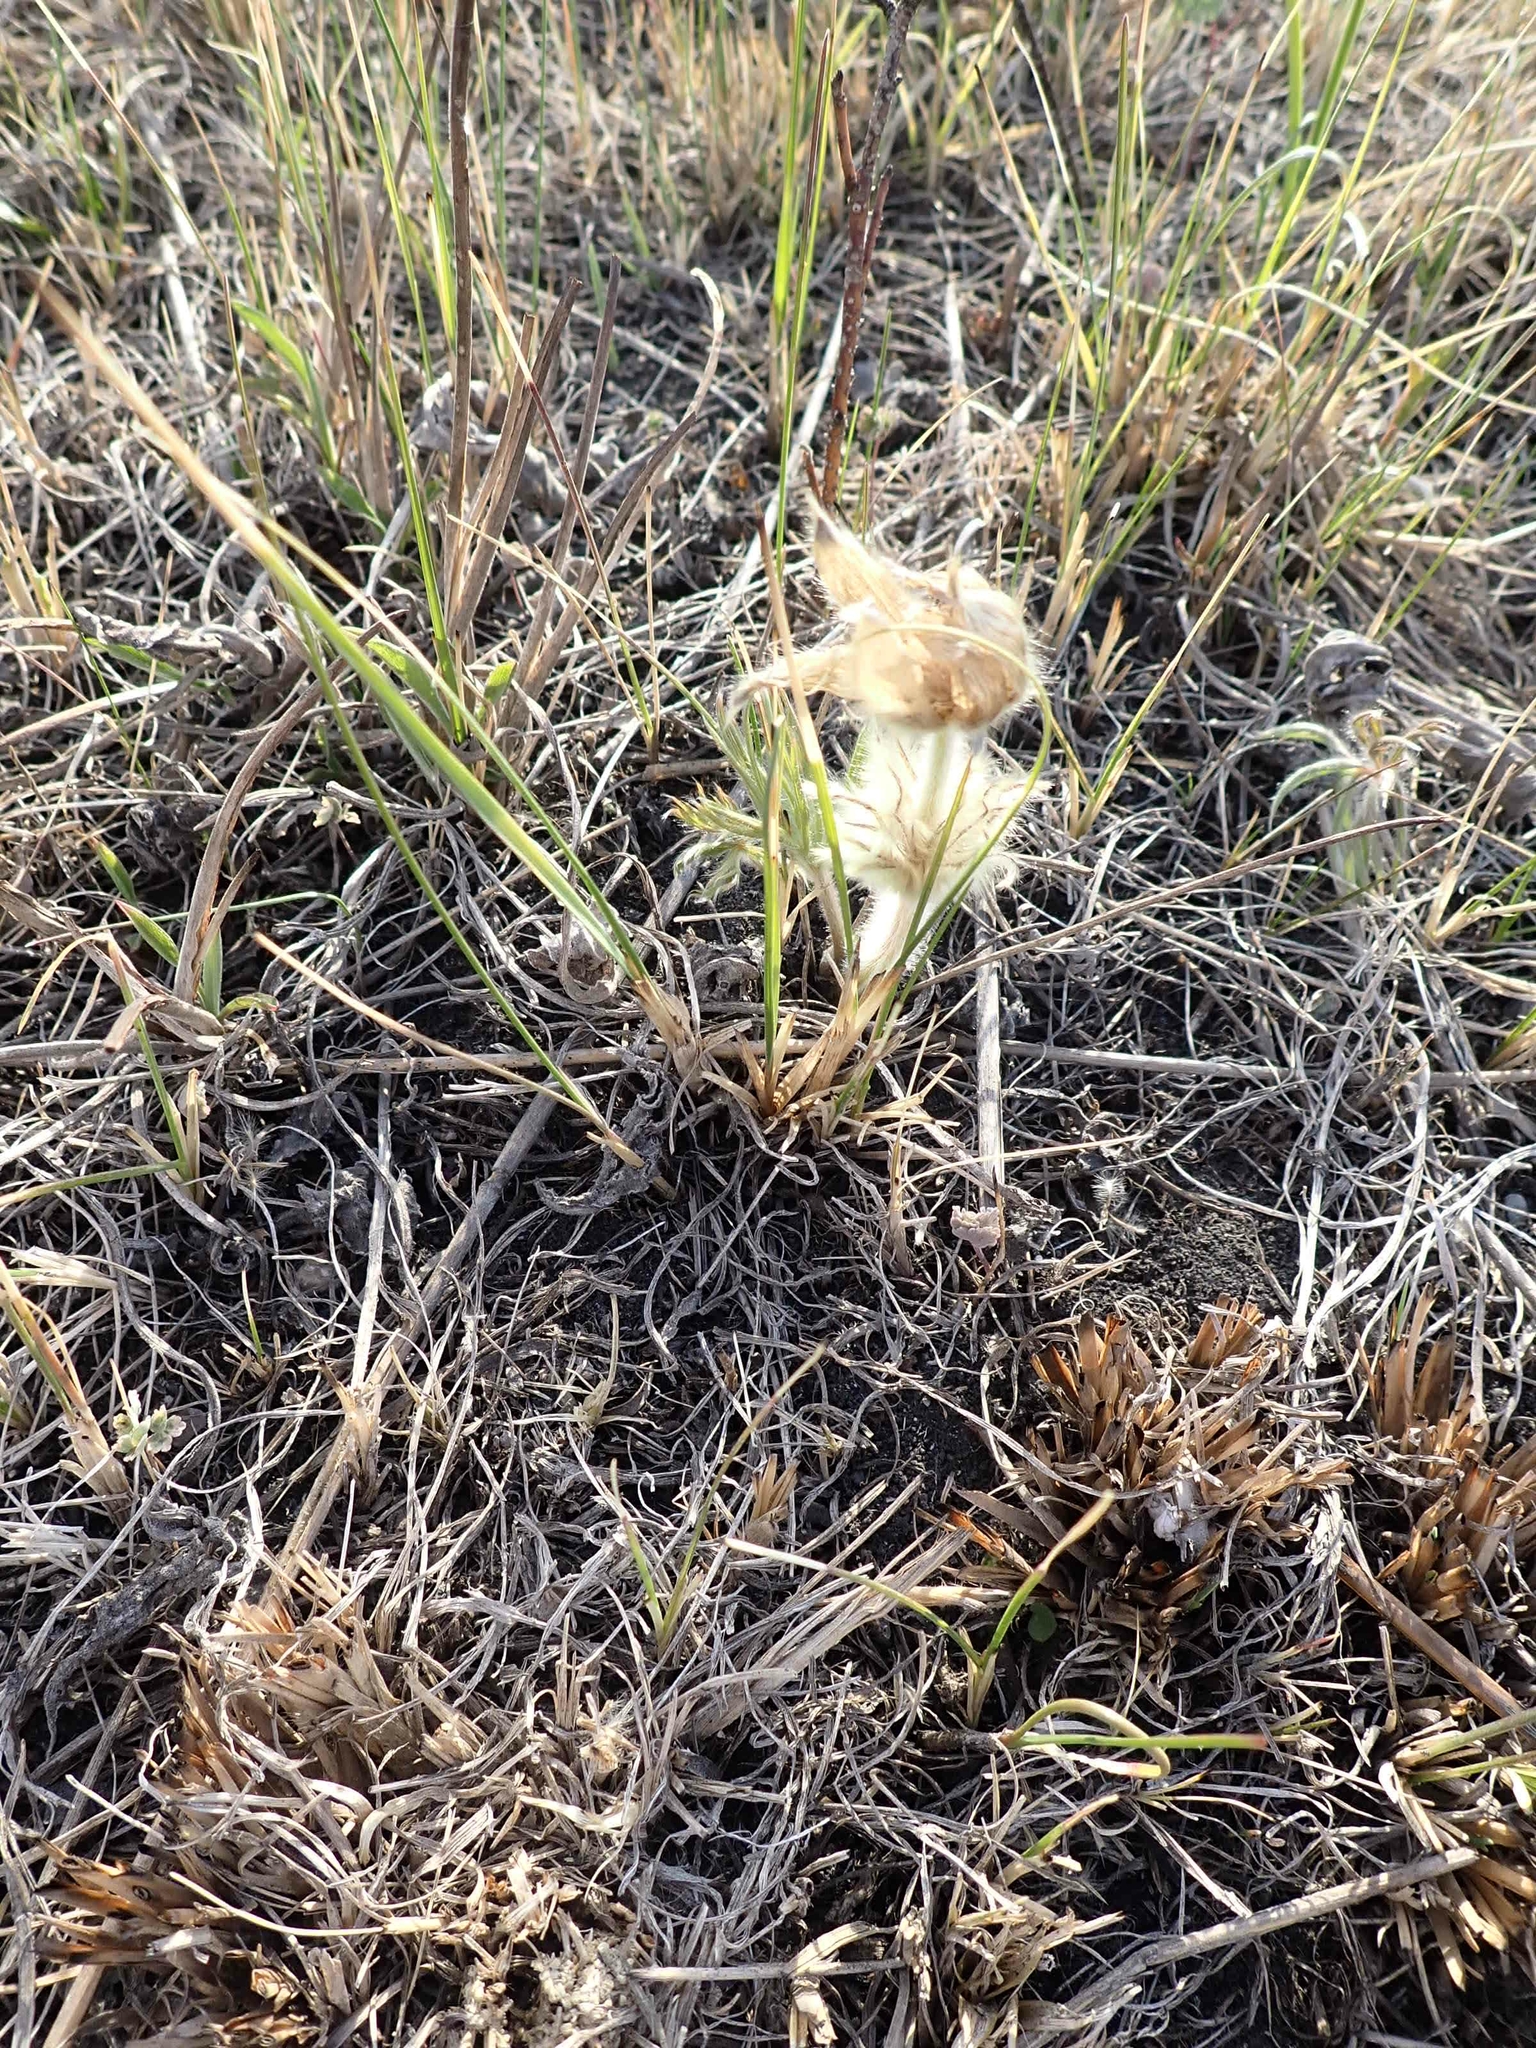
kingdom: Plantae
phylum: Tracheophyta
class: Magnoliopsida
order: Ranunculales
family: Ranunculaceae
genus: Pulsatilla
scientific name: Pulsatilla nuttalliana
